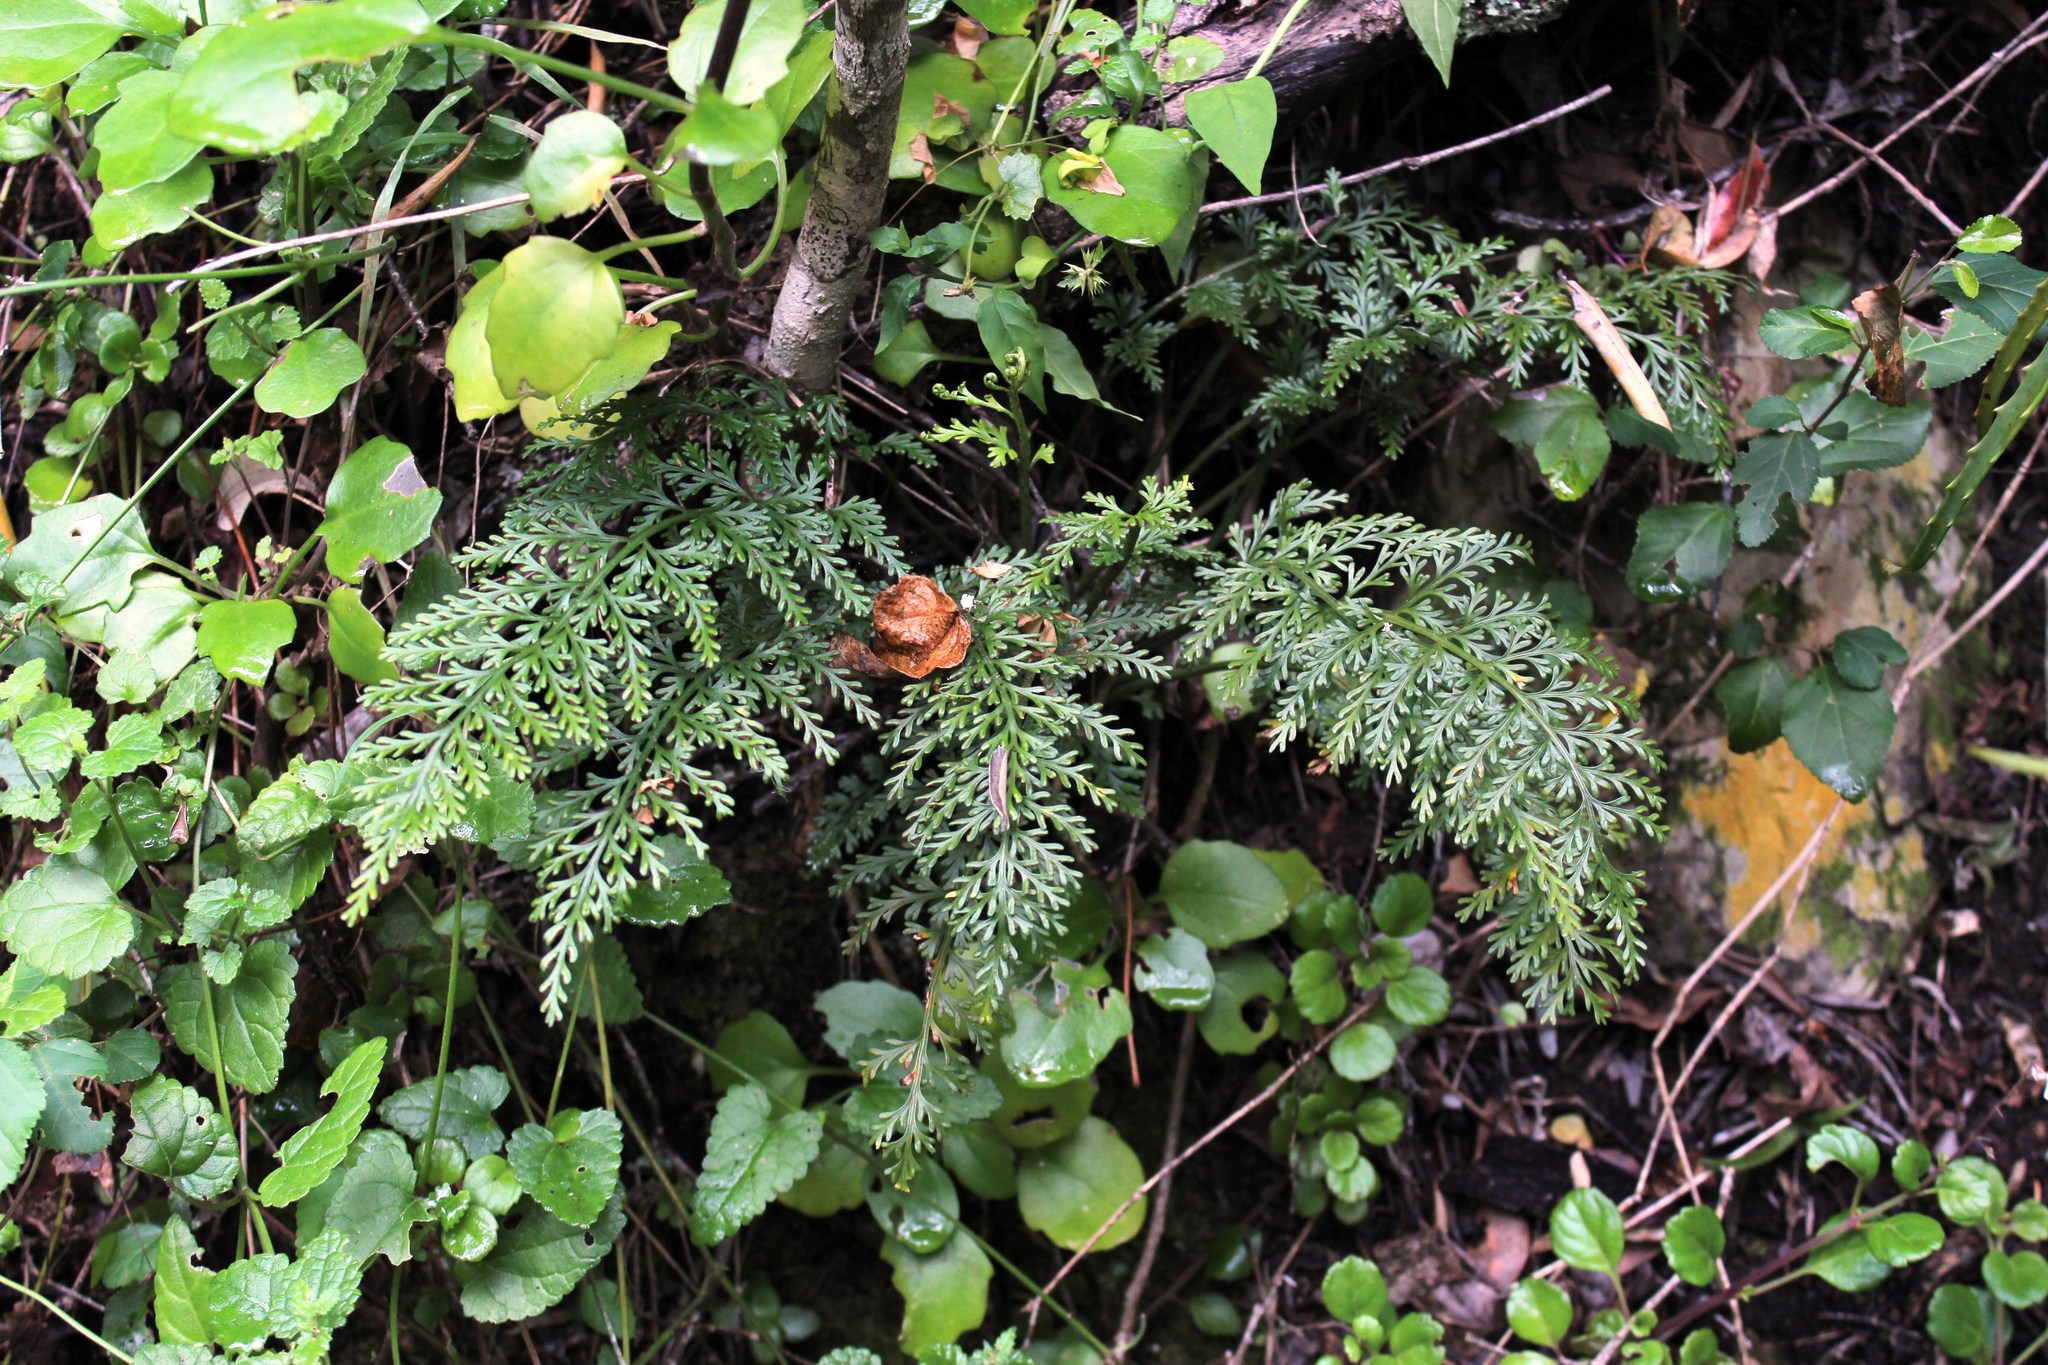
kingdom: Plantae
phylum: Tracheophyta
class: Polypodiopsida
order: Polypodiales
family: Aspleniaceae
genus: Asplenium
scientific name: Asplenium rutifolium
